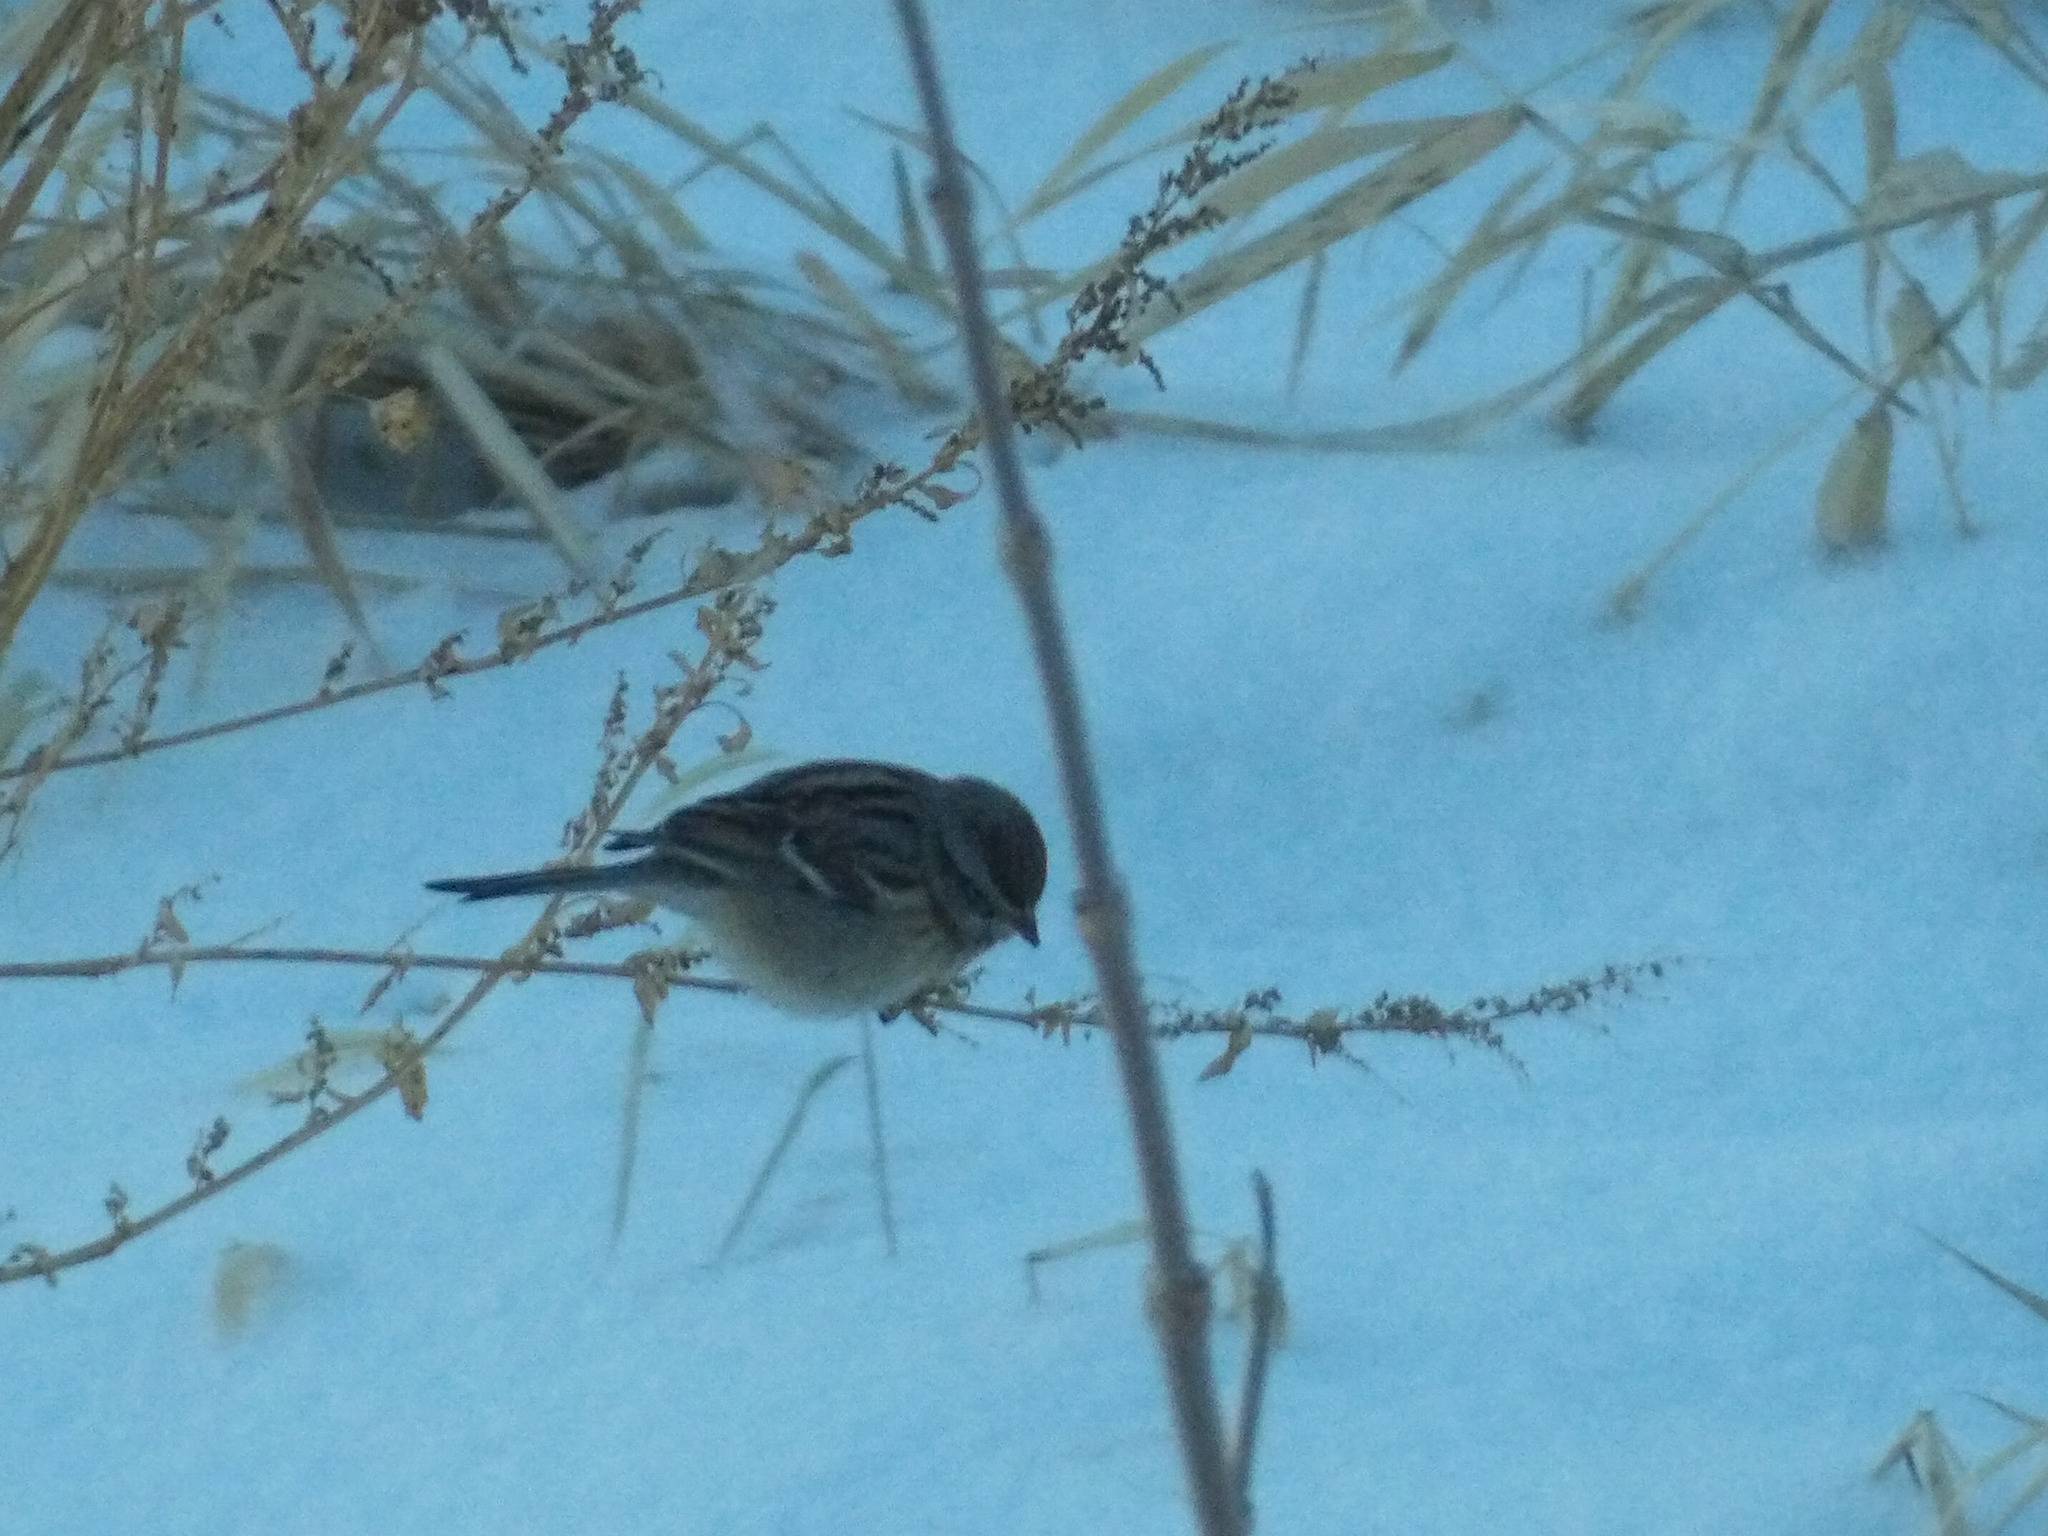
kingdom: Animalia
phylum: Chordata
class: Aves
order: Passeriformes
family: Passerellidae
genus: Spizelloides
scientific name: Spizelloides arborea
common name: American tree sparrow
